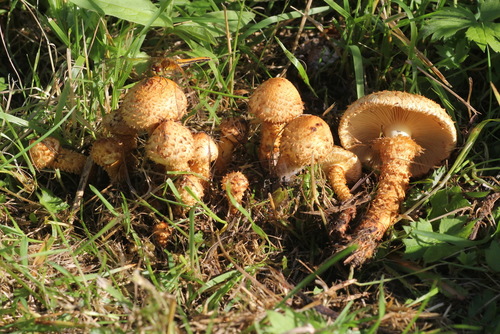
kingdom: Fungi
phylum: Basidiomycota
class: Agaricomycetes
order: Agaricales
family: Strophariaceae
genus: Pholiota
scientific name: Pholiota kodiakensis
